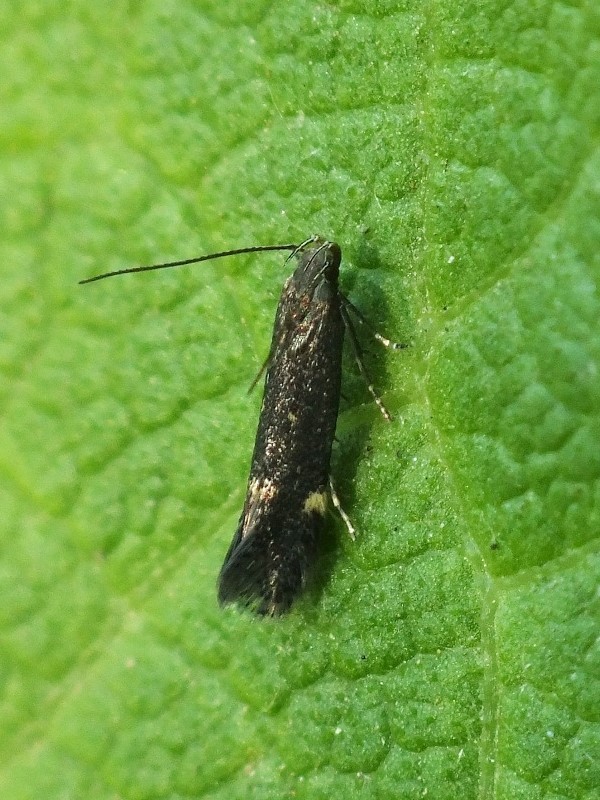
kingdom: Animalia
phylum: Arthropoda
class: Insecta
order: Lepidoptera
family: Gelechiidae
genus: Aproaerema
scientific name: Aproaerema anthyllidella
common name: Vetch sober
